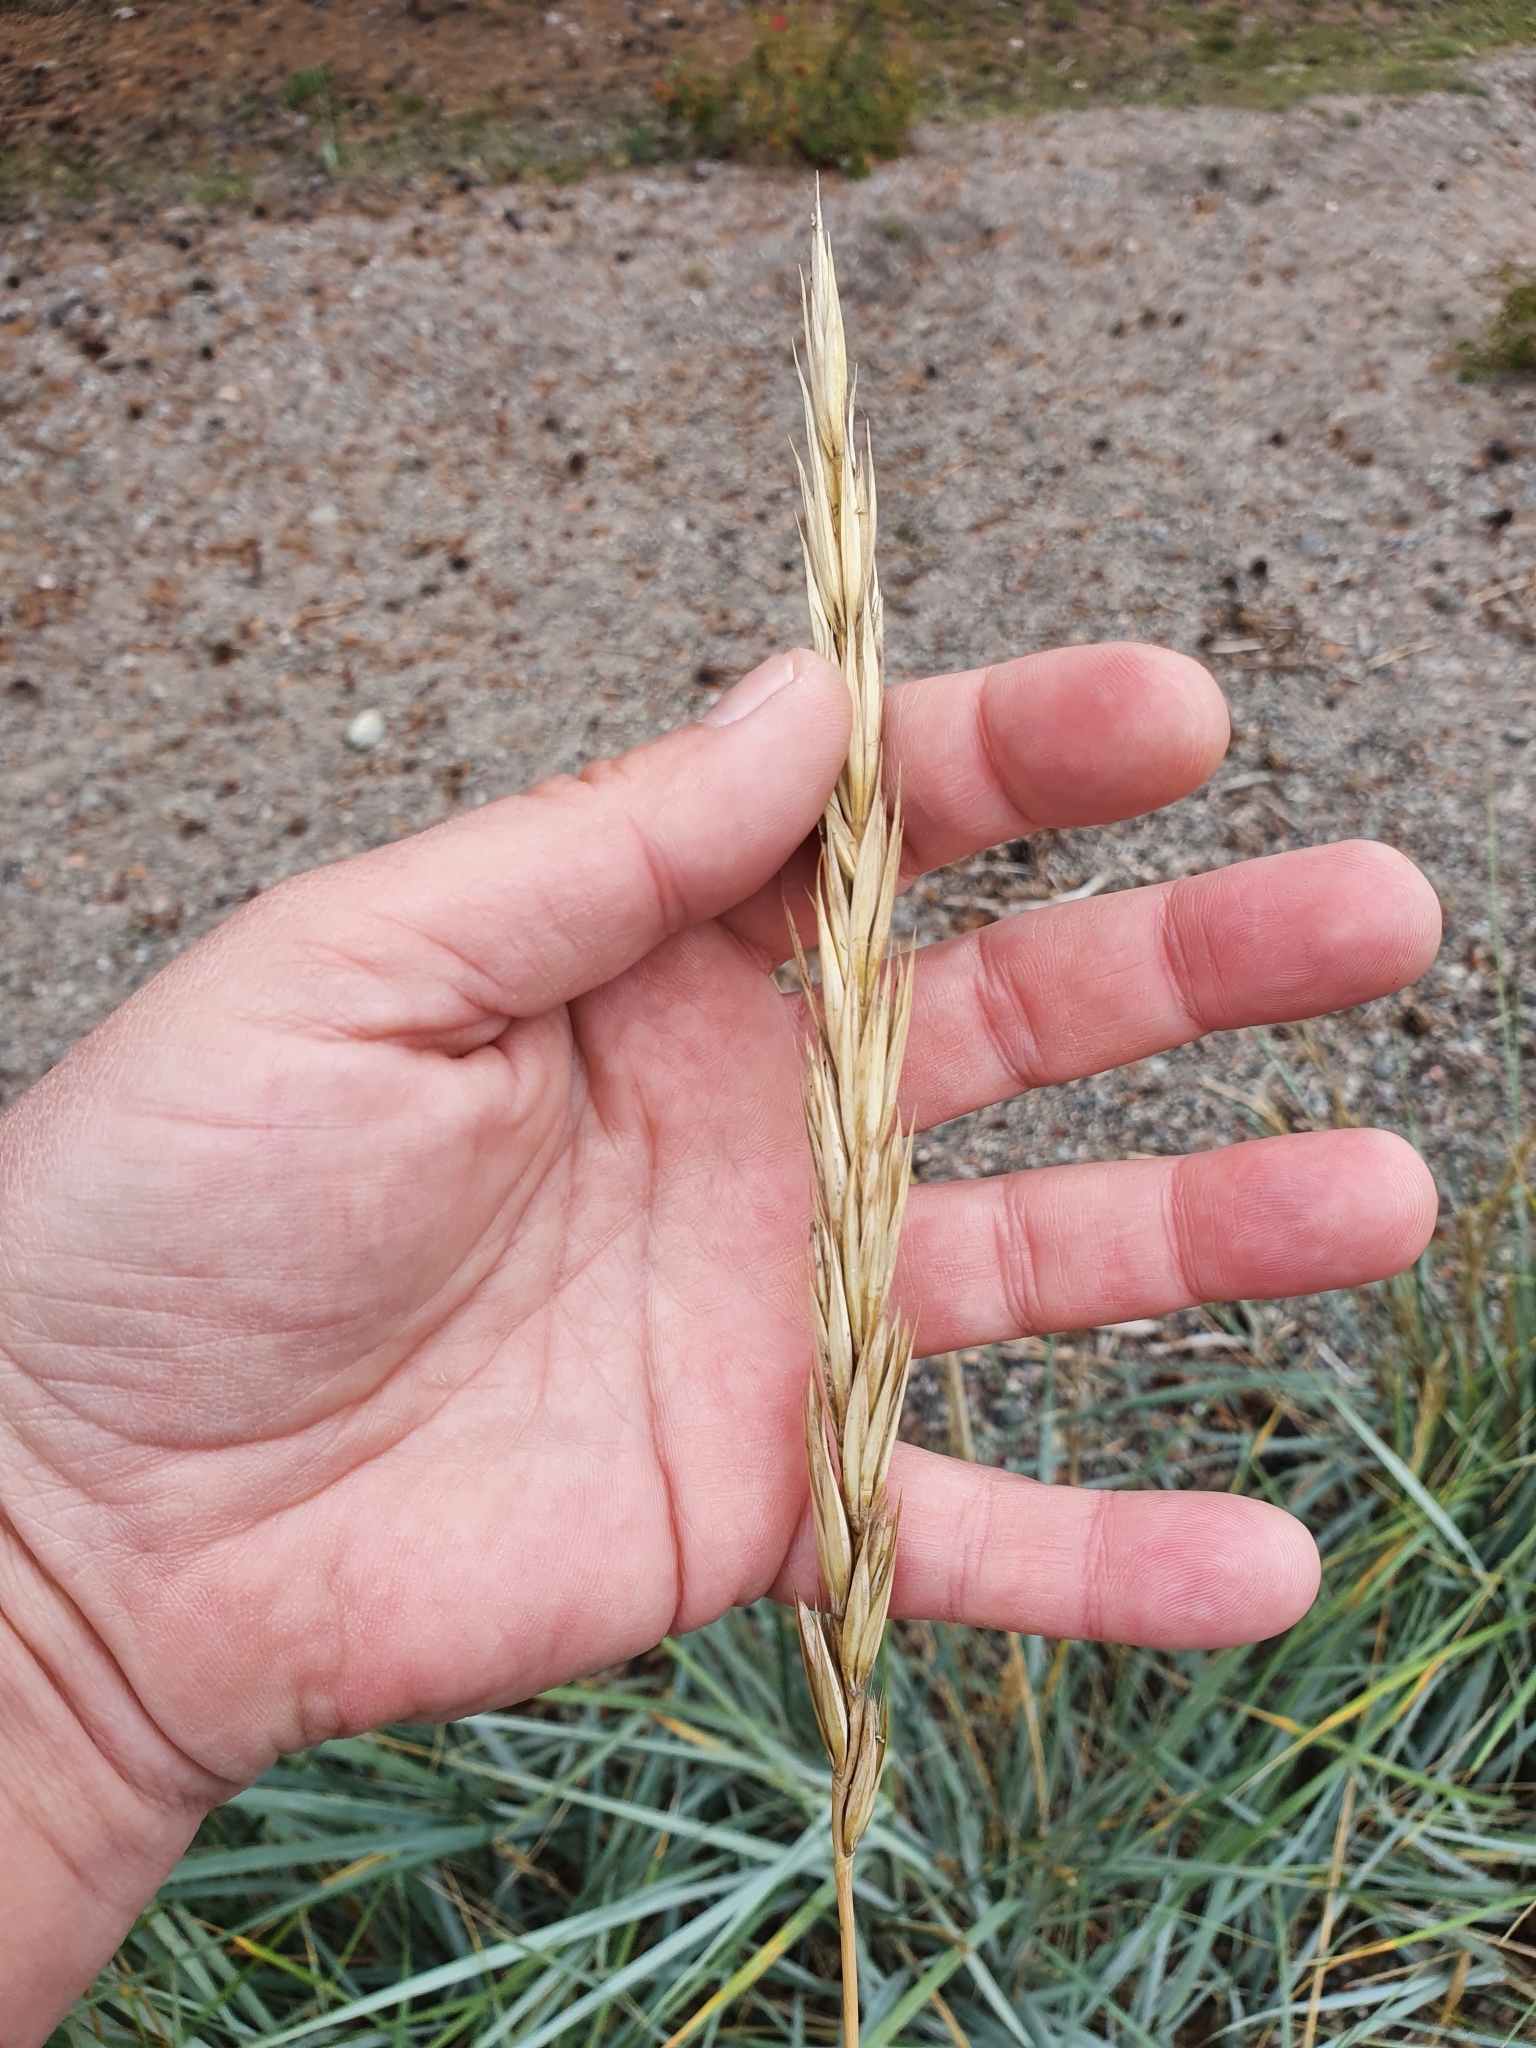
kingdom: Plantae
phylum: Tracheophyta
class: Liliopsida
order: Poales
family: Poaceae
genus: Leymus
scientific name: Leymus arenarius
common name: Lyme-grass
